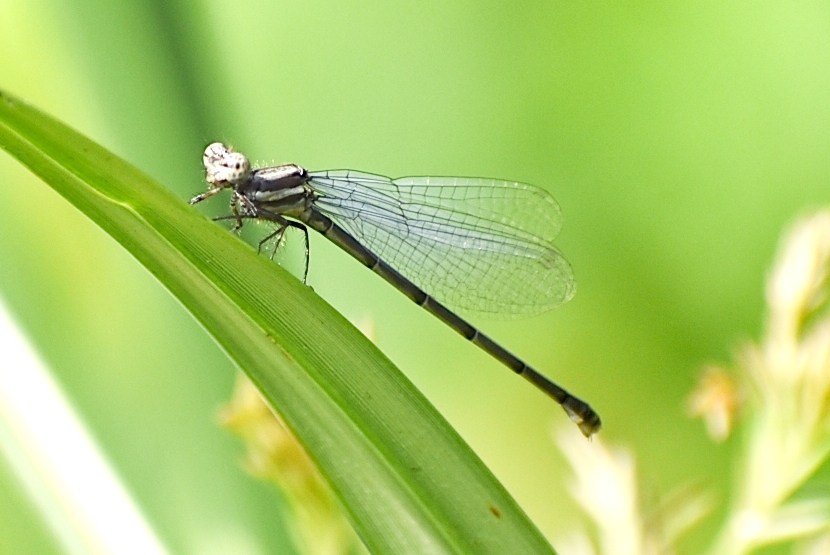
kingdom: Animalia
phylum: Arthropoda
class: Insecta
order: Odonata
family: Platycnemididae
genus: Onychargia
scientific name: Onychargia atrocyana
